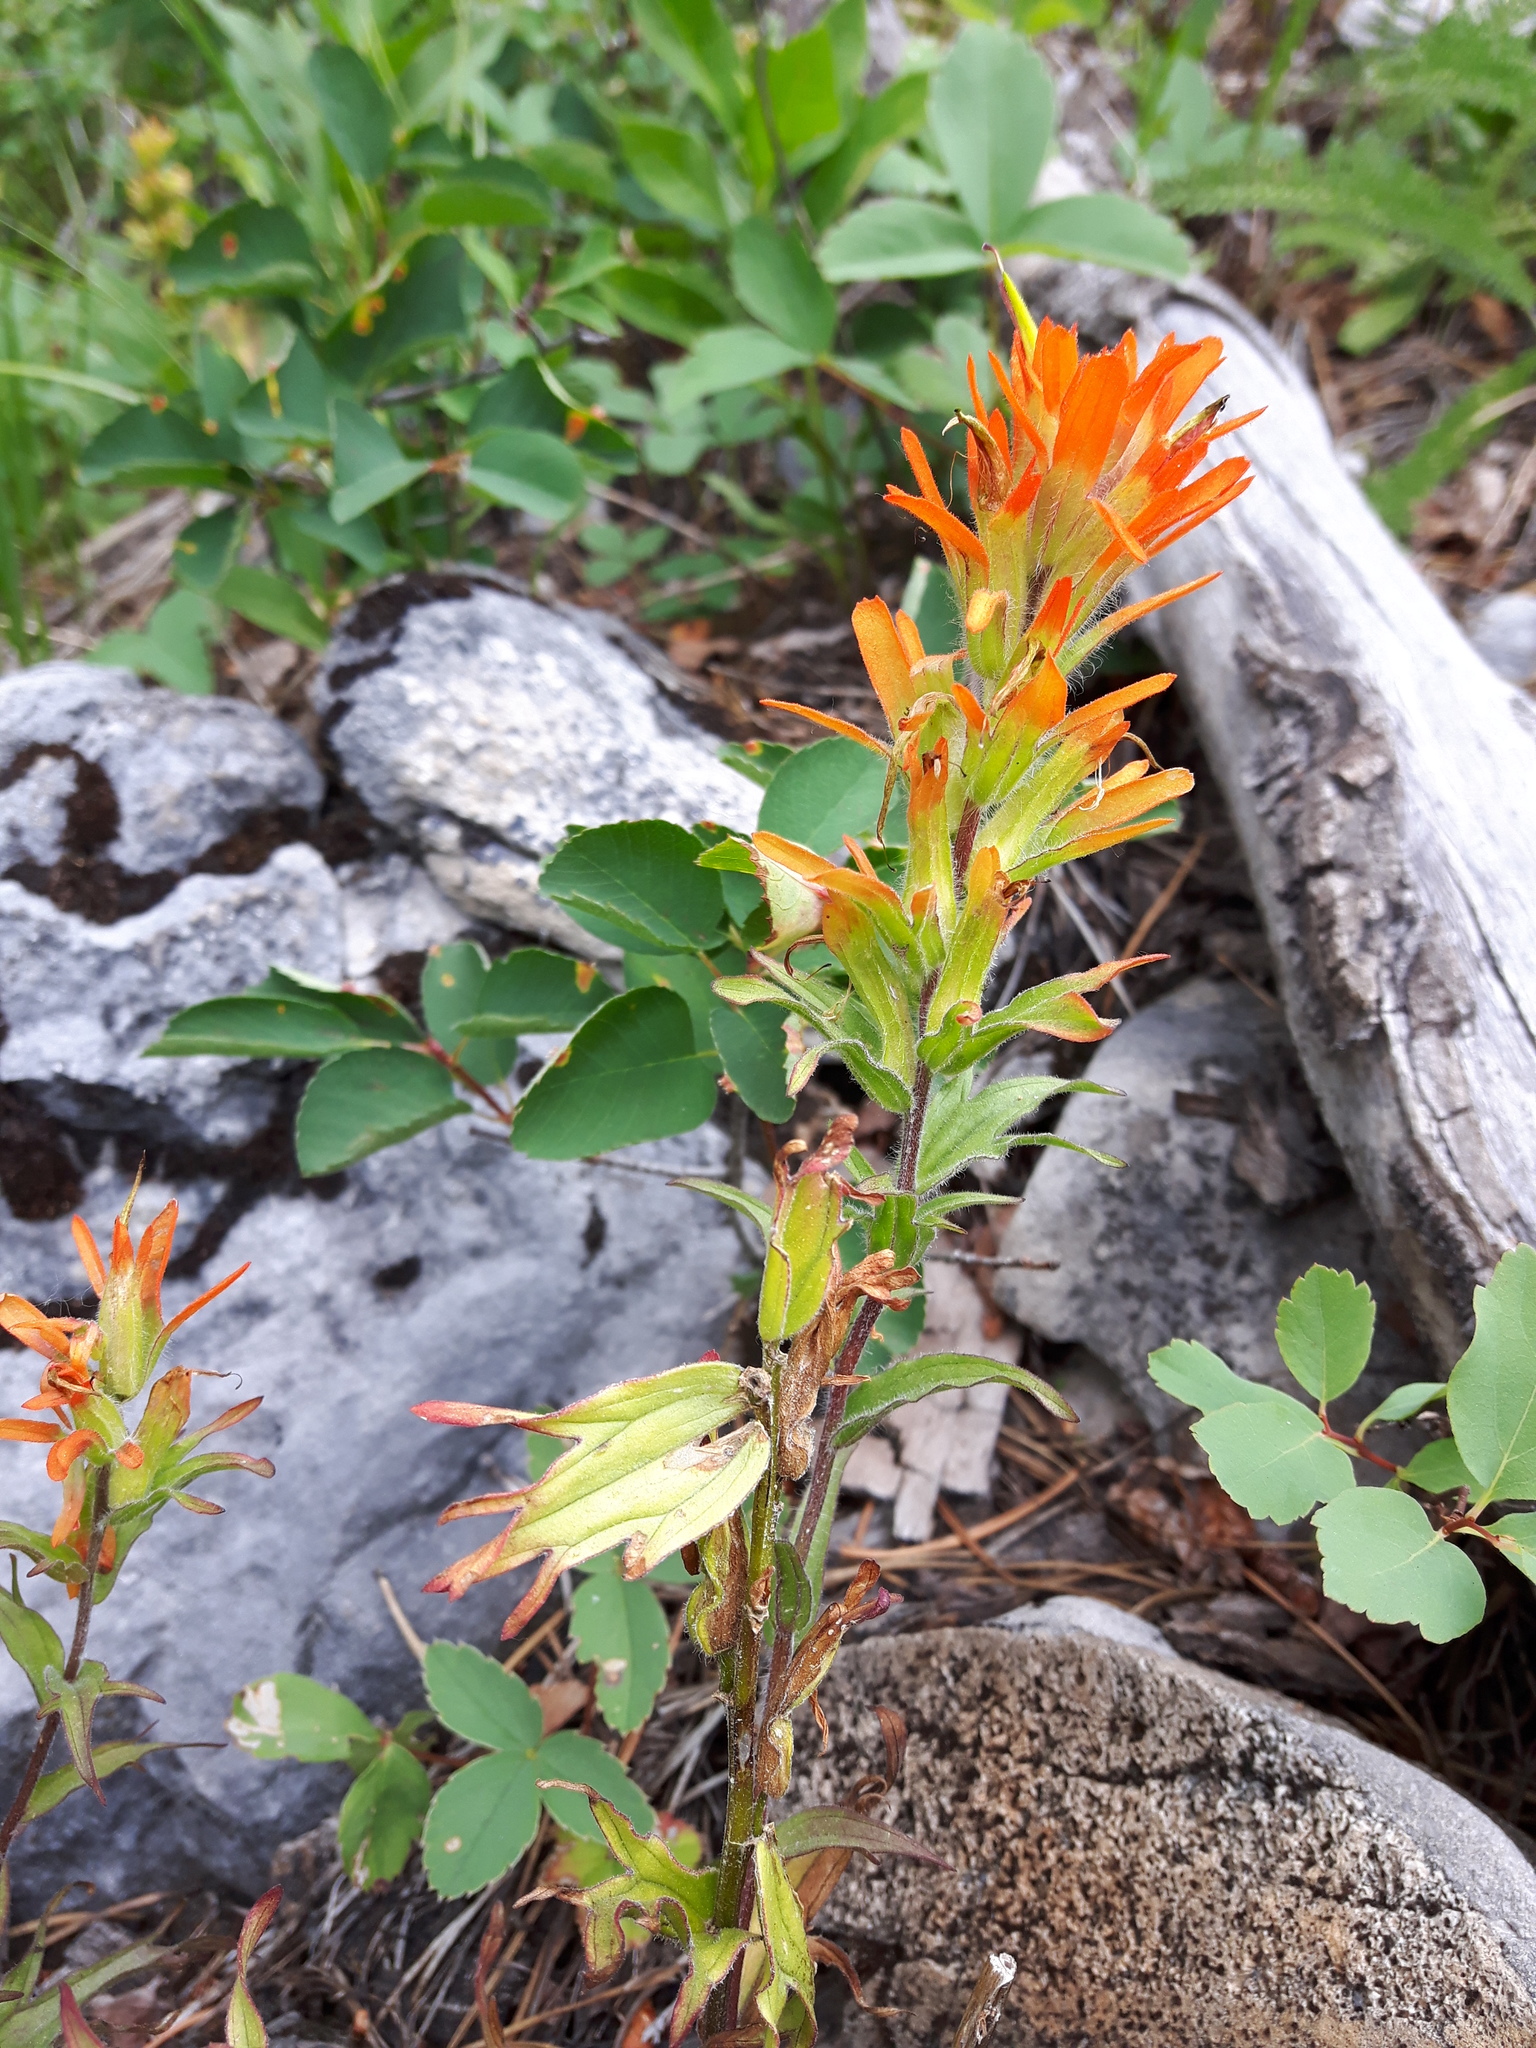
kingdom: Plantae
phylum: Tracheophyta
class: Magnoliopsida
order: Lamiales
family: Orobanchaceae
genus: Castilleja
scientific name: Castilleja hispida
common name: Bristly paintbrush
